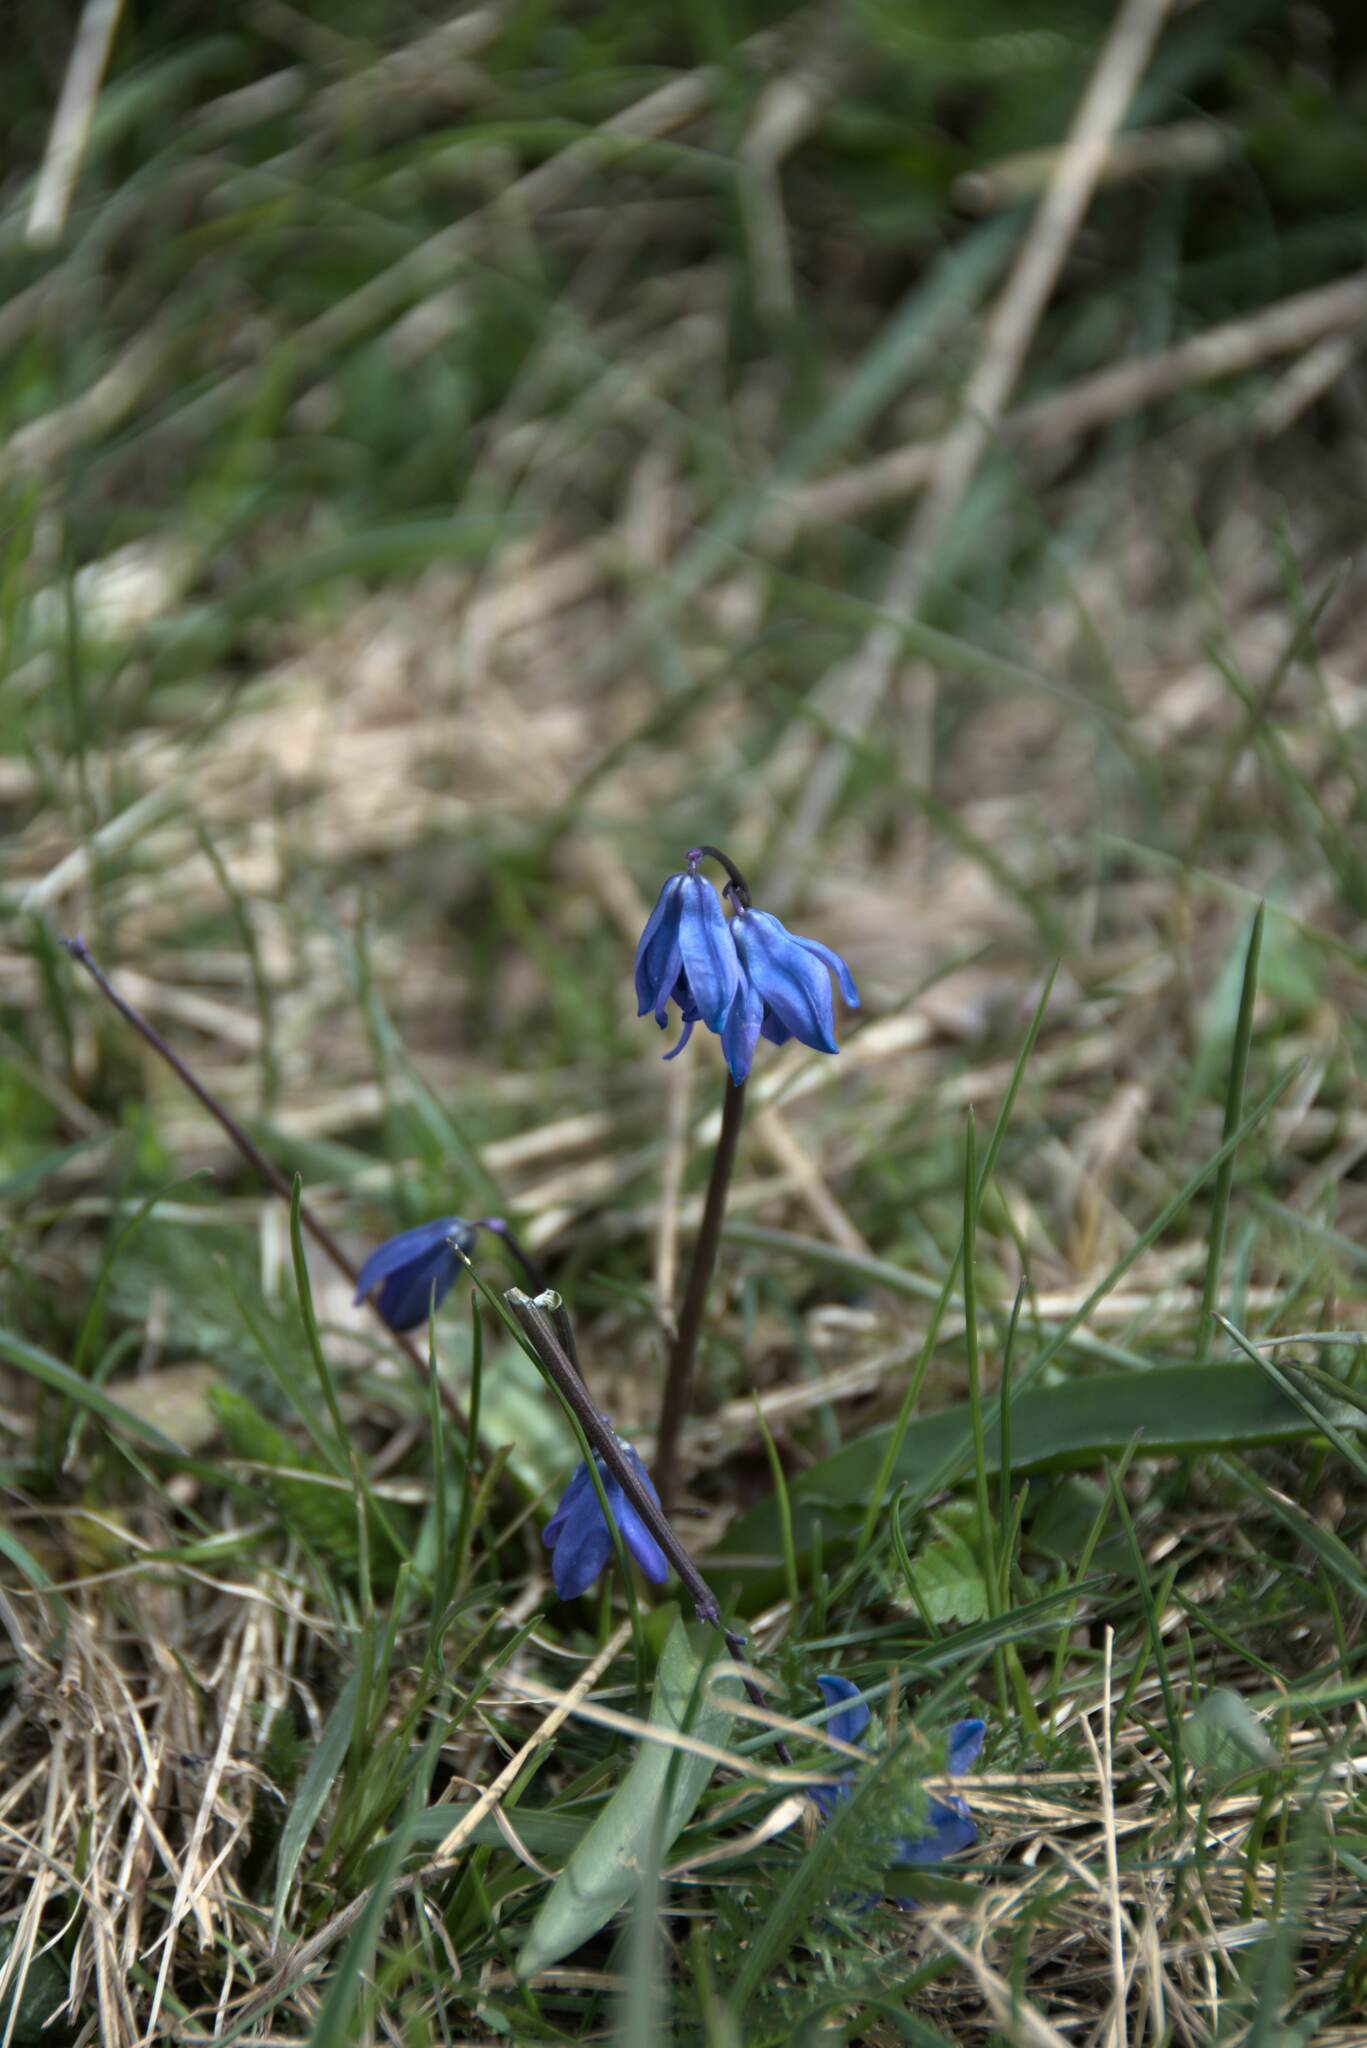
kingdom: Plantae
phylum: Tracheophyta
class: Liliopsida
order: Asparagales
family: Asparagaceae
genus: Scilla
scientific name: Scilla siberica
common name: Siberian squill
